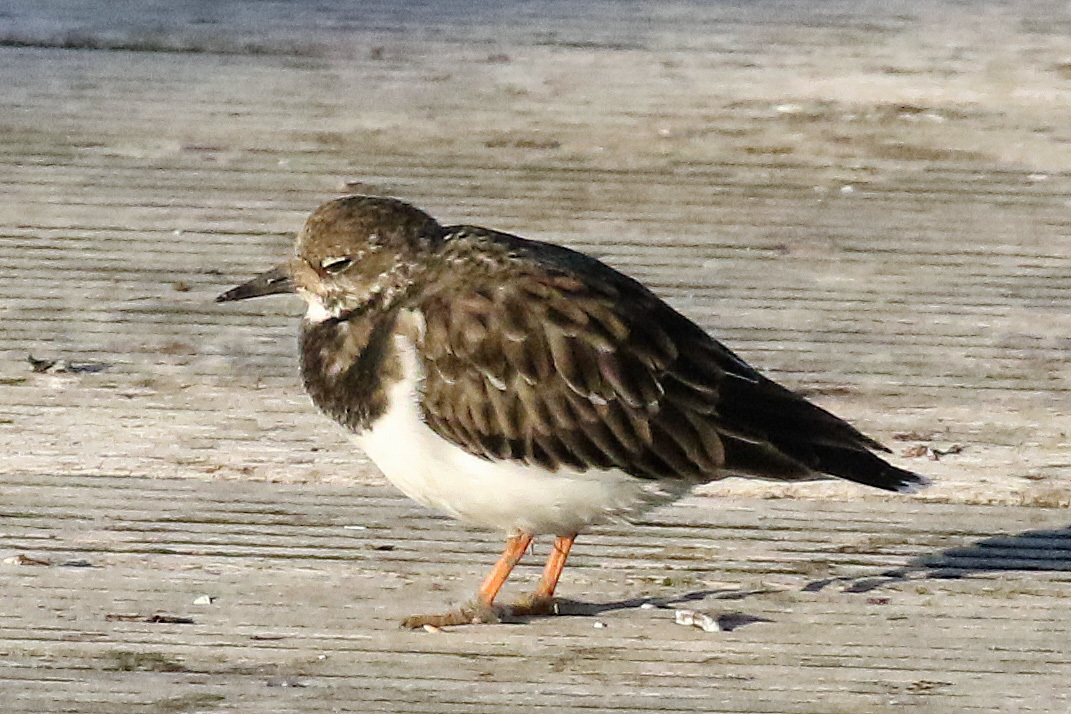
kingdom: Animalia
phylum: Chordata
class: Aves
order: Charadriiformes
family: Scolopacidae
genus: Arenaria
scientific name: Arenaria interpres
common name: Ruddy turnstone
